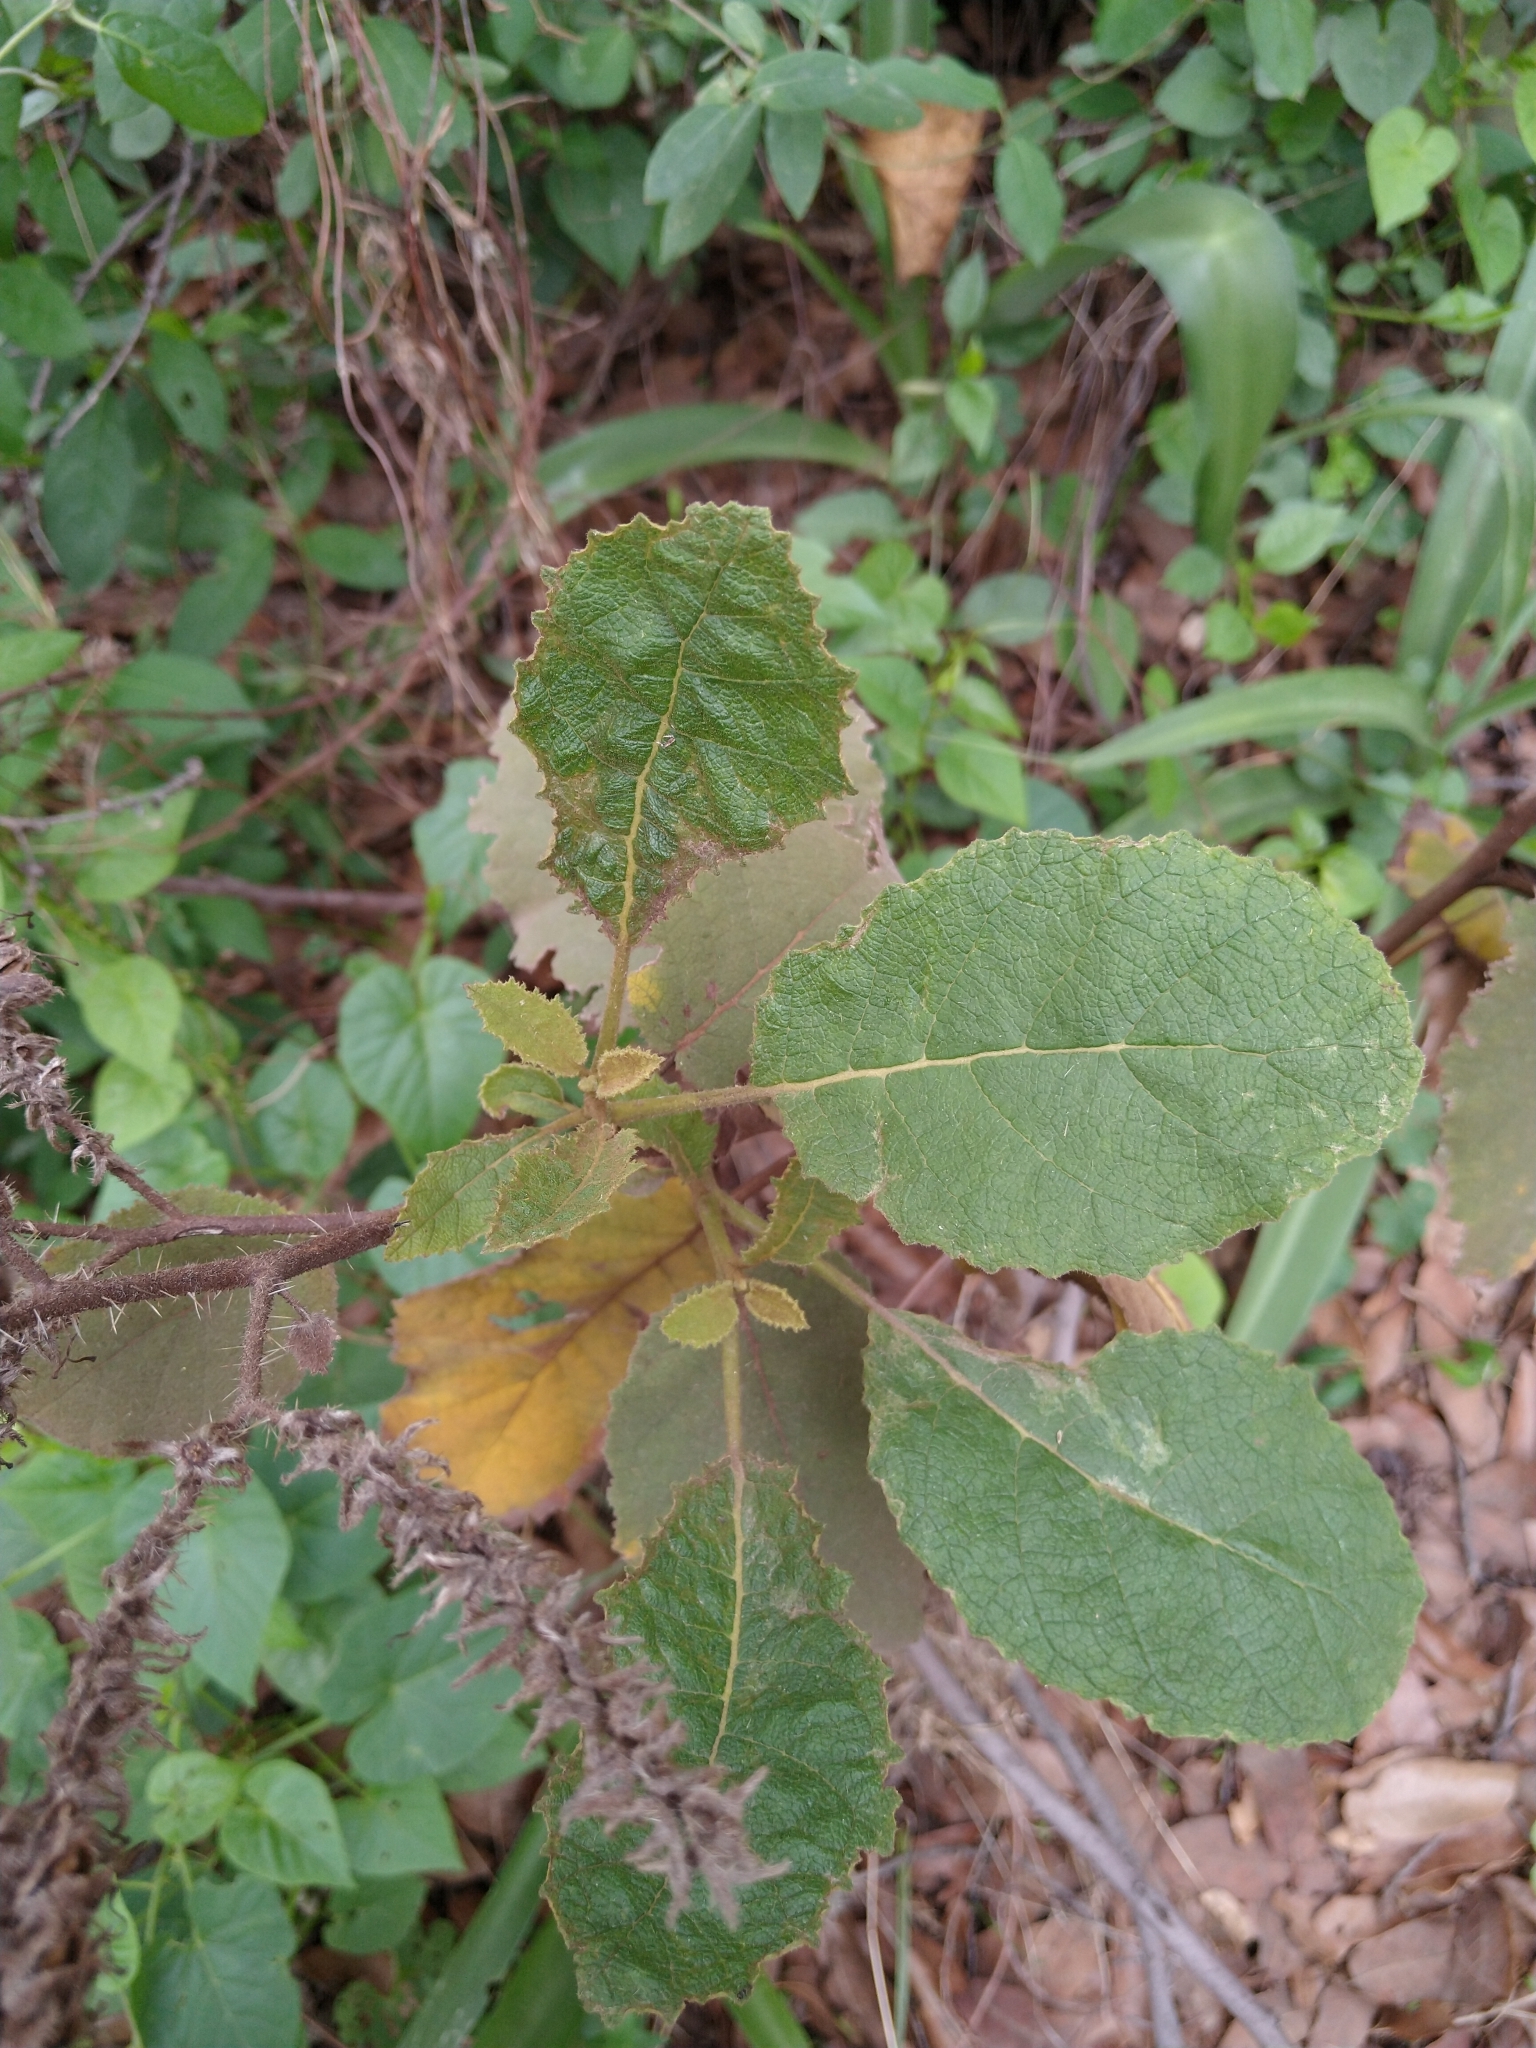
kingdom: Plantae
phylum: Tracheophyta
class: Magnoliopsida
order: Boraginales
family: Namaceae
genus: Wigandia
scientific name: Wigandia urens
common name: Caracus wigandia
